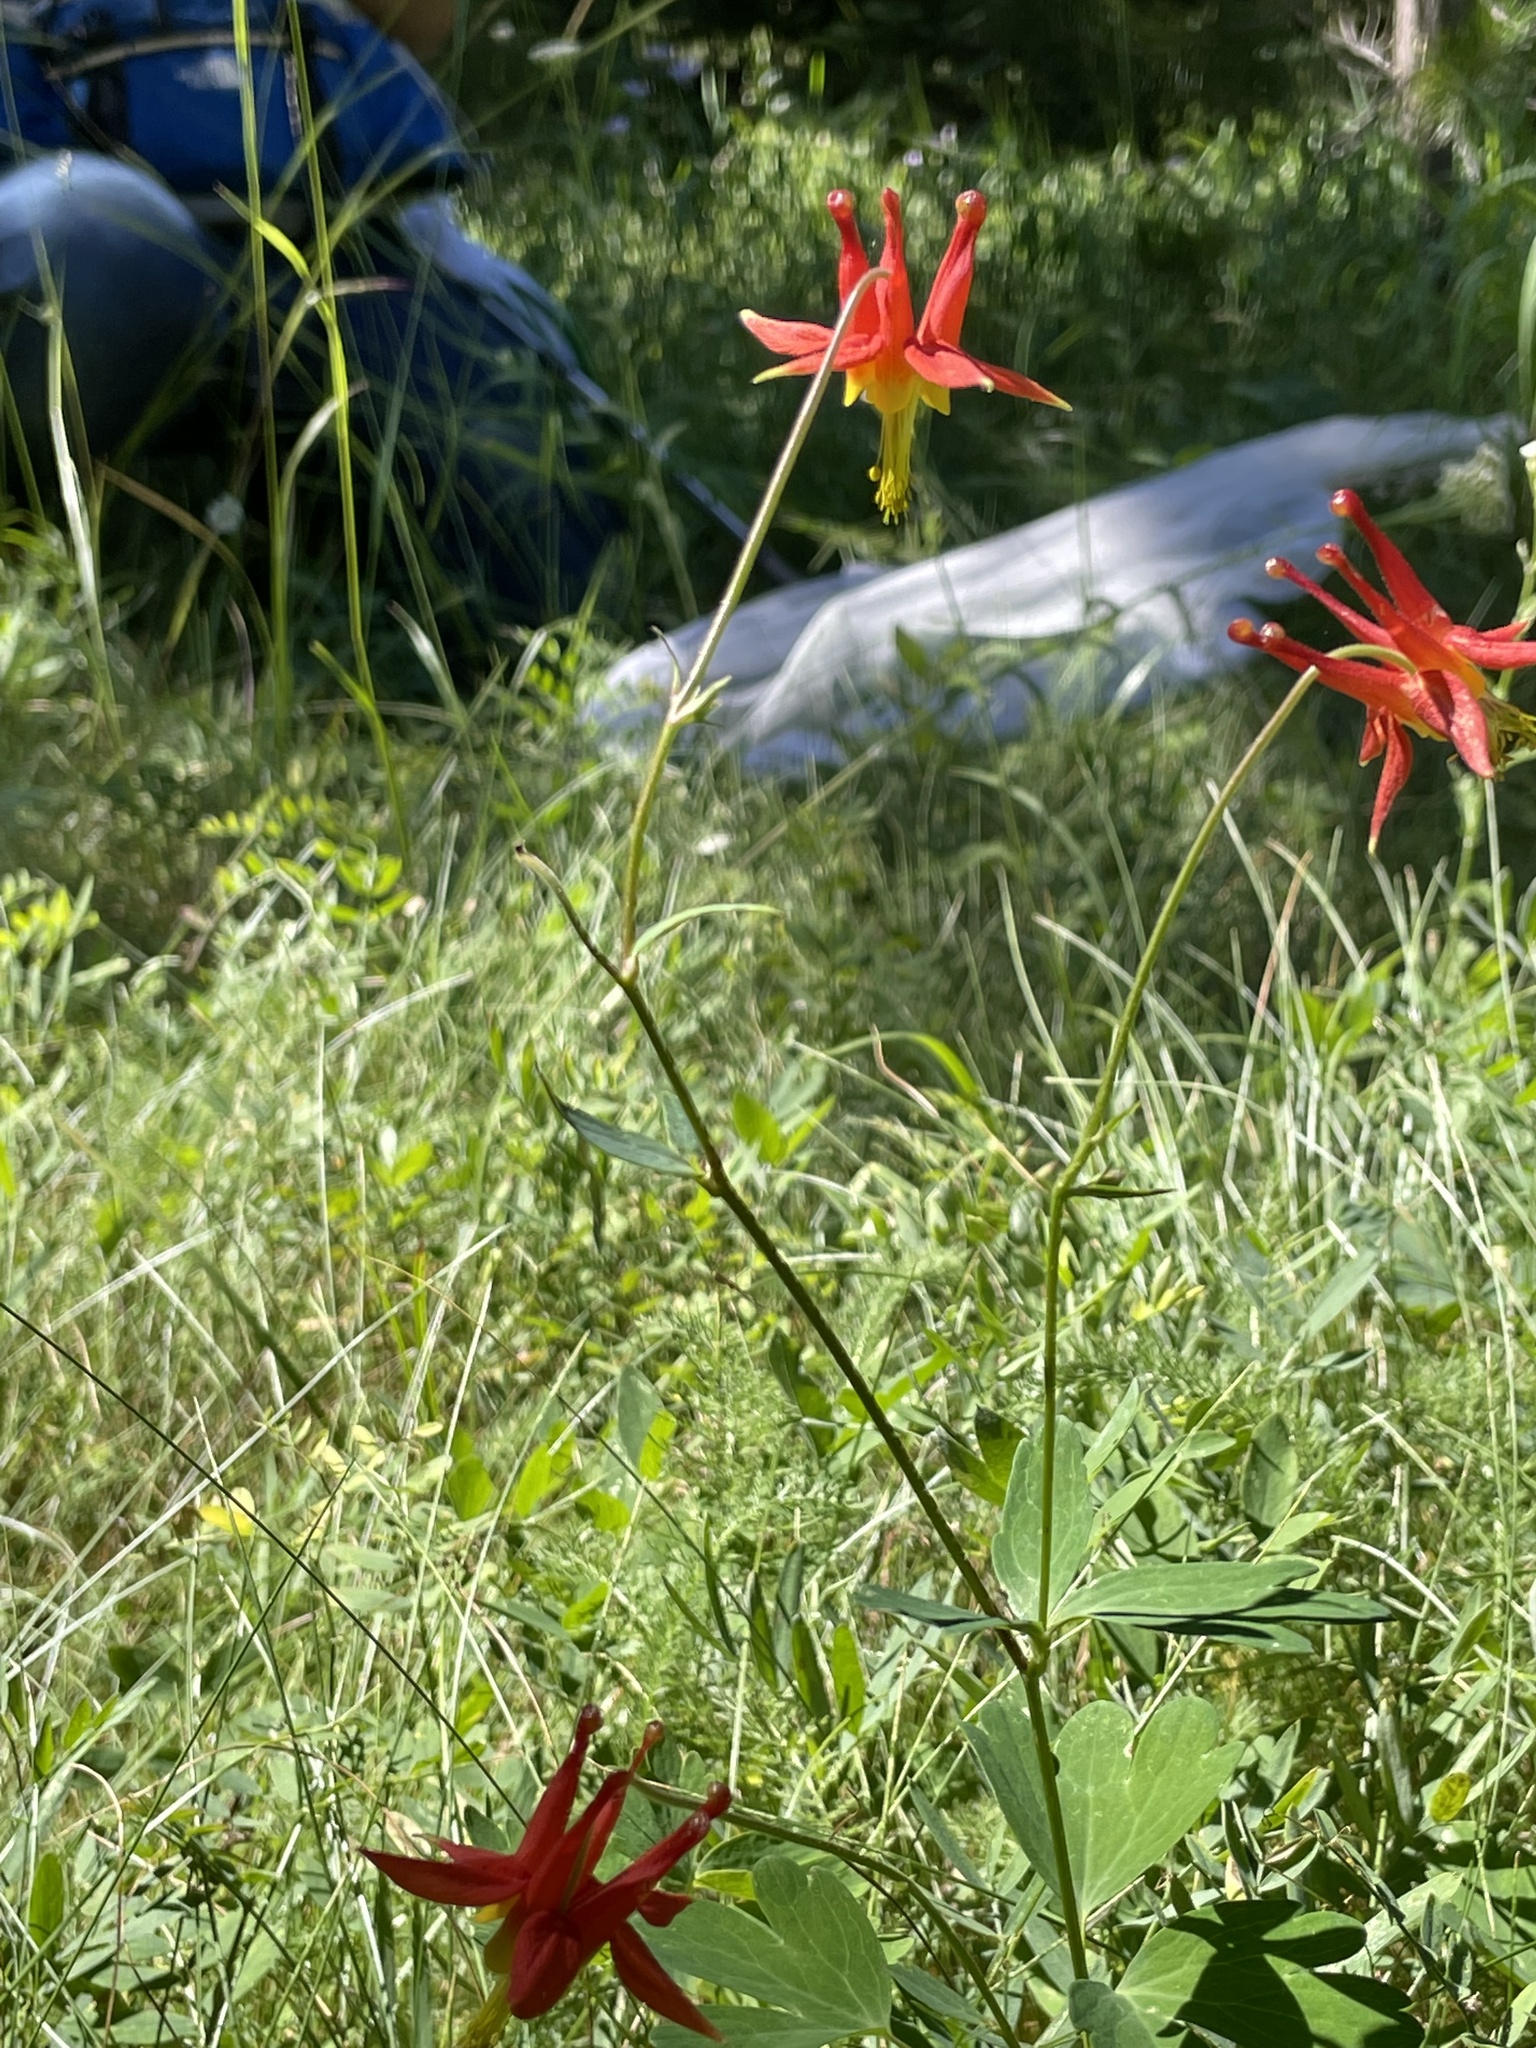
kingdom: Plantae
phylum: Tracheophyta
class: Magnoliopsida
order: Ranunculales
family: Ranunculaceae
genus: Aquilegia
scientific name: Aquilegia formosa
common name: Sitka columbine
